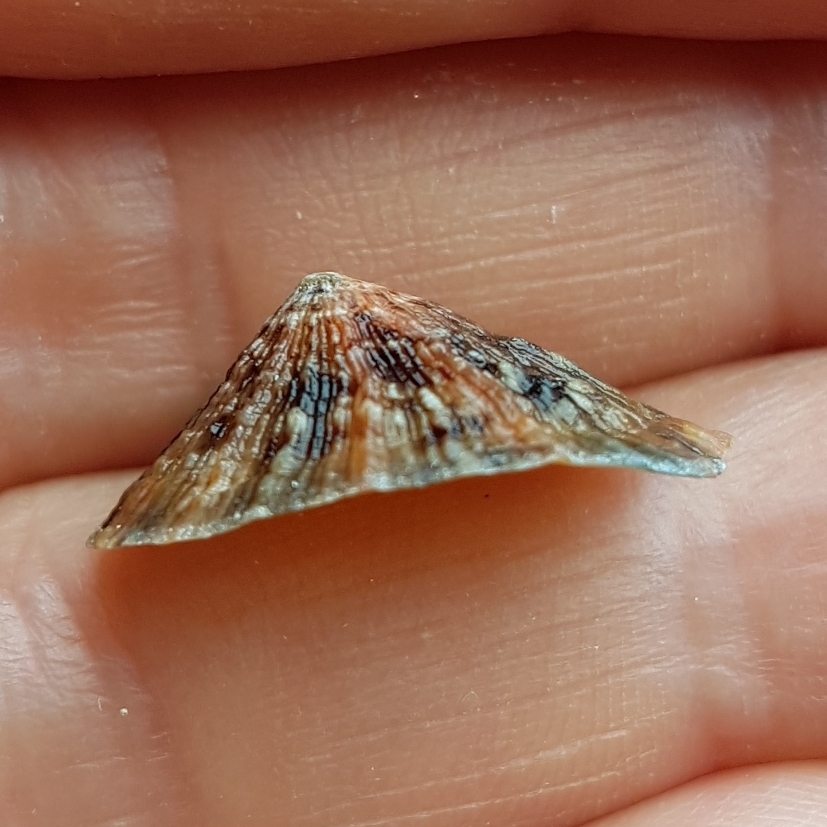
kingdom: Animalia
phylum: Mollusca
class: Gastropoda
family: Patellidae
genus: Patella
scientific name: Patella vulgata
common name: Common limpet
